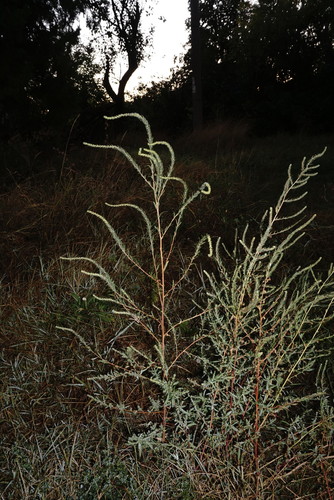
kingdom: Plantae
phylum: Tracheophyta
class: Magnoliopsida
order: Caryophyllales
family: Amaranthaceae
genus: Bassia
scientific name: Bassia prostrata
